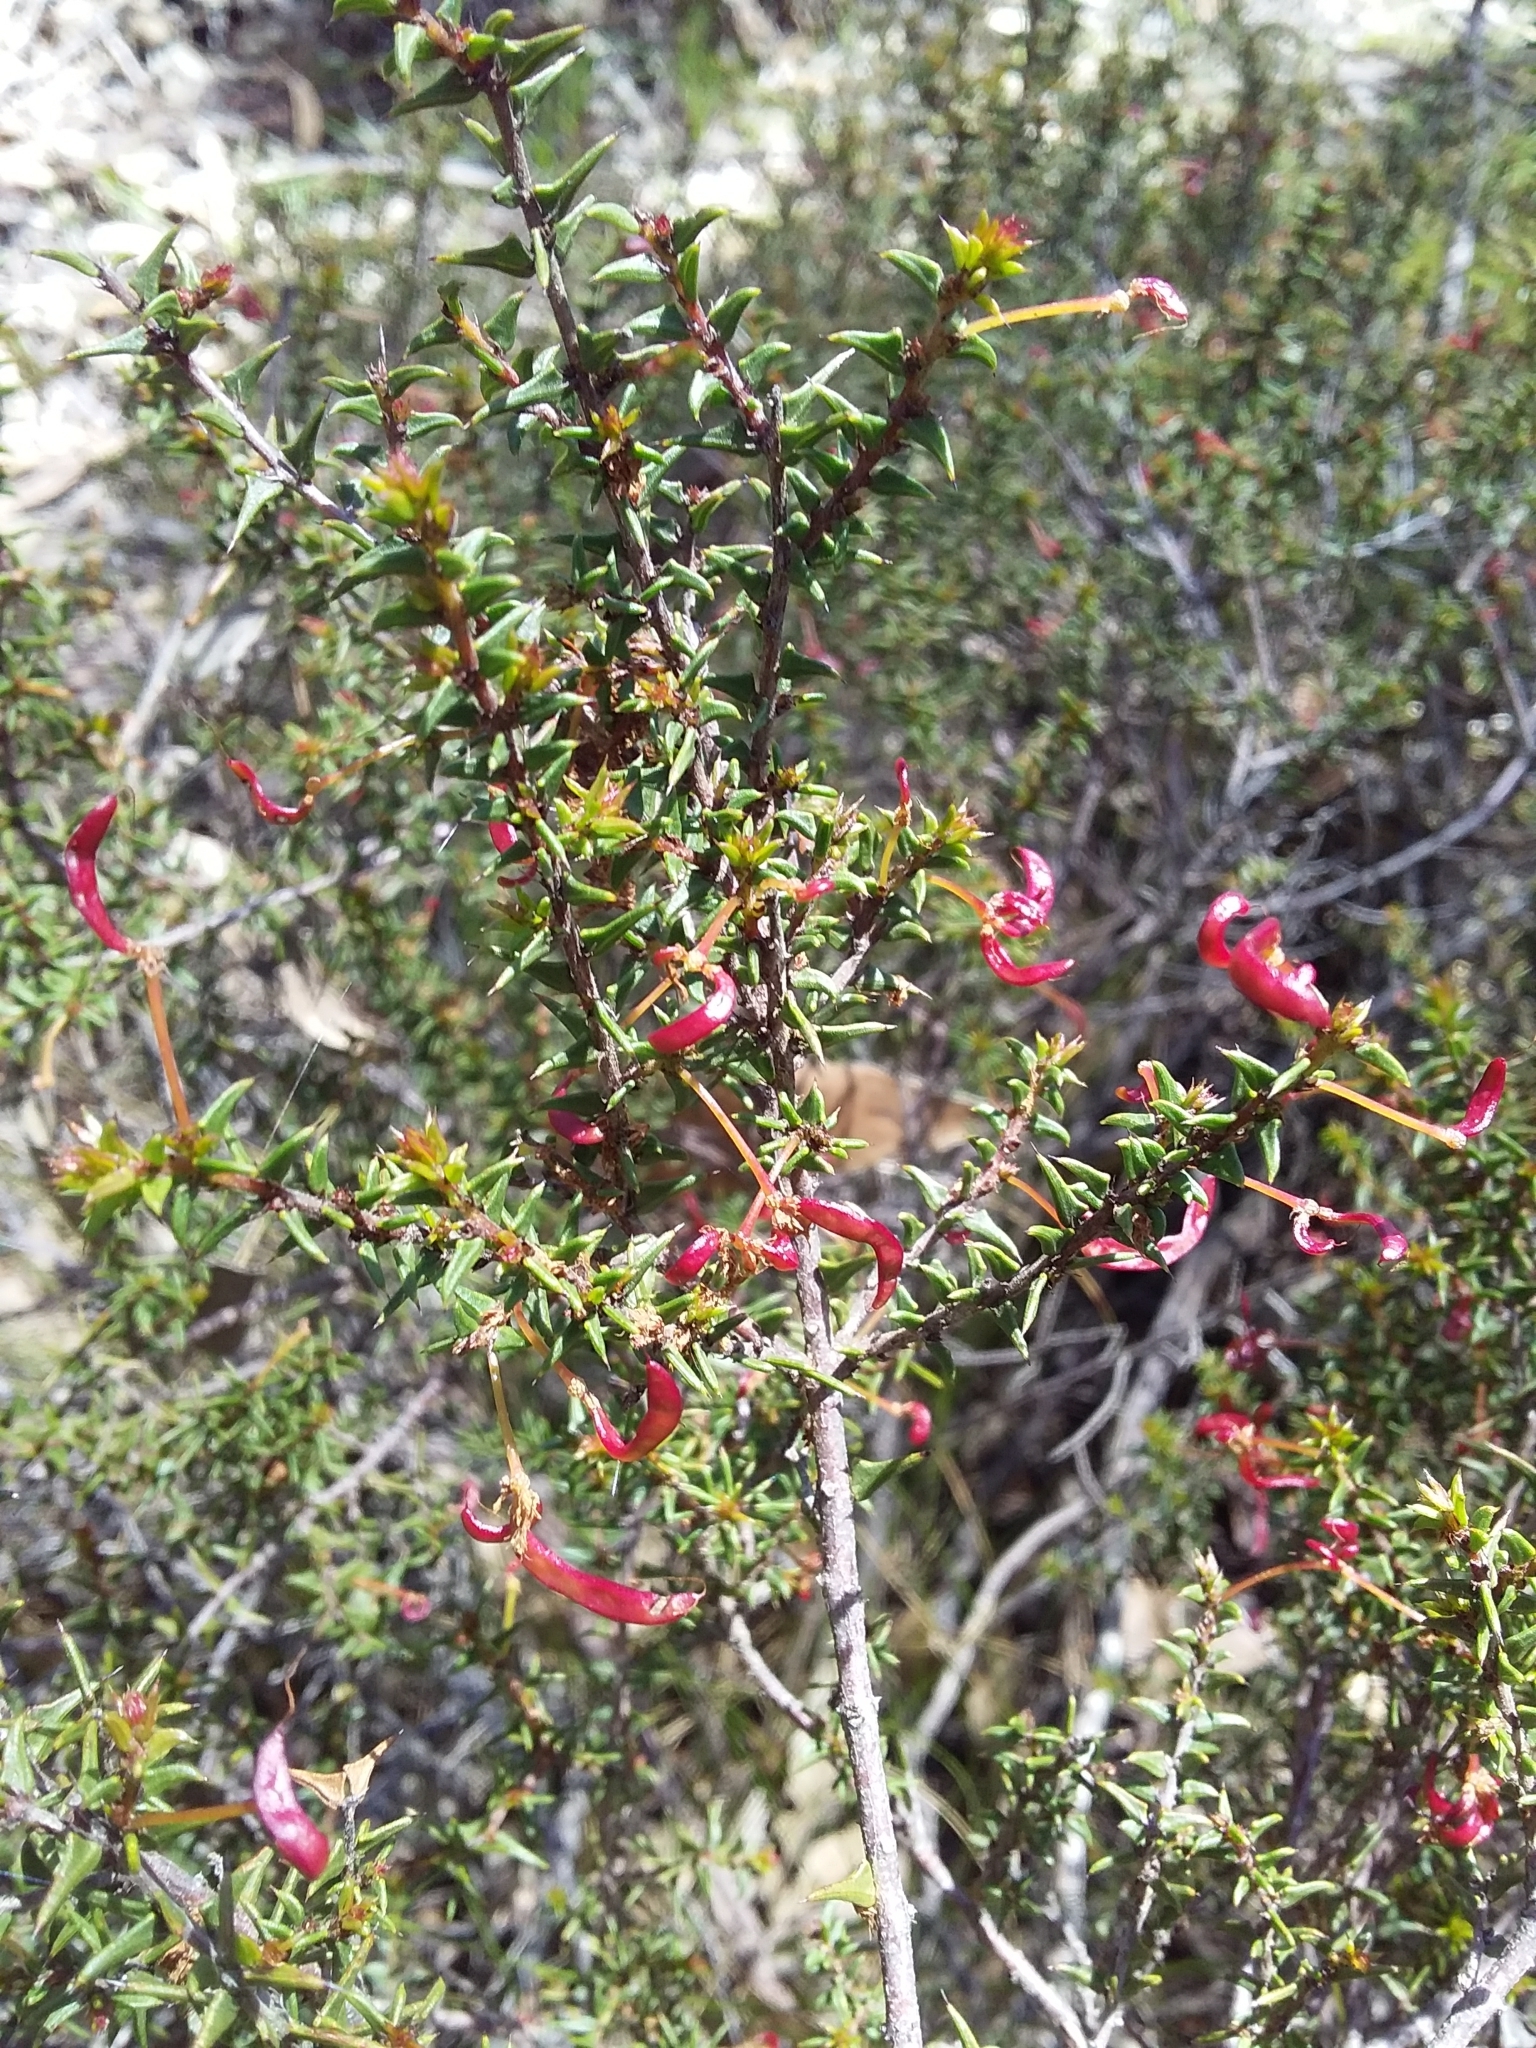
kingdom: Plantae
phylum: Tracheophyta
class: Magnoliopsida
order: Fabales
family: Fabaceae
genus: Acacia
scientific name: Acacia gunnii
